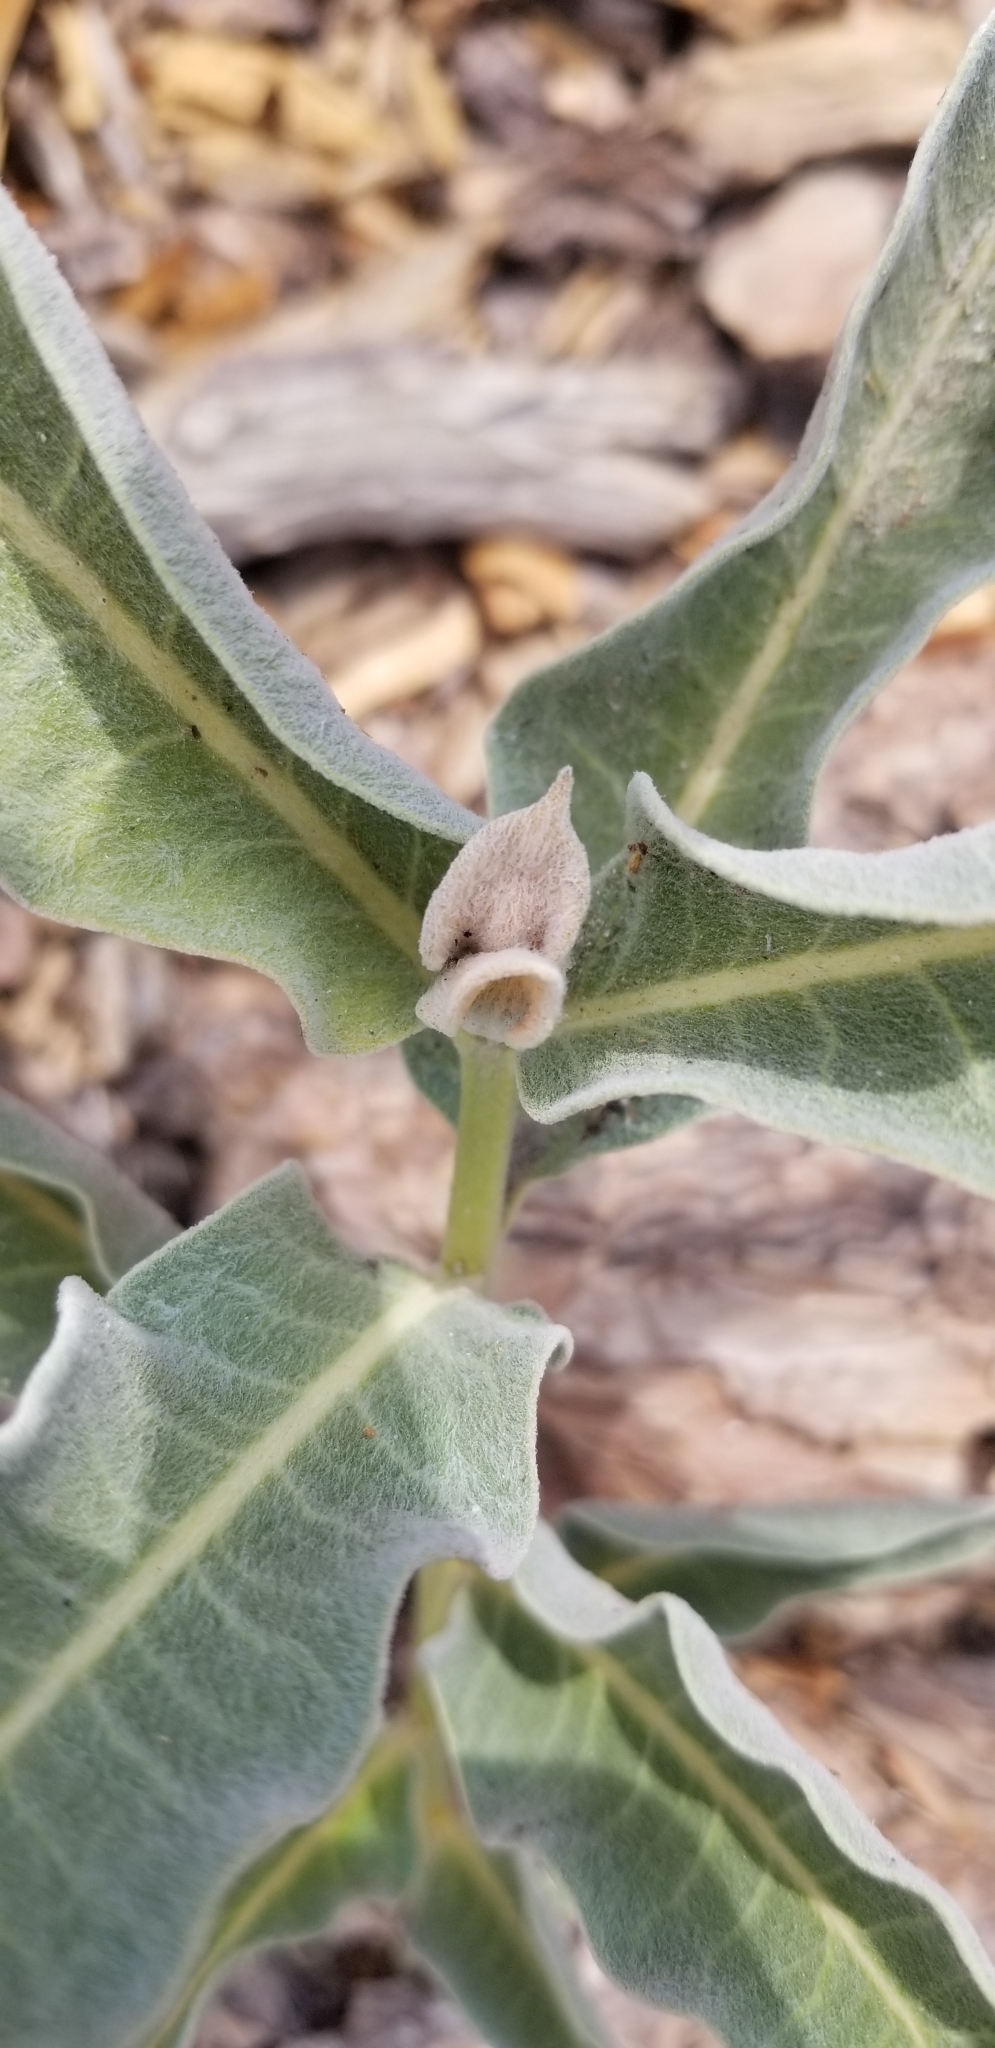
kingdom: Plantae
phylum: Tracheophyta
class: Magnoliopsida
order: Gentianales
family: Apocynaceae
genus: Asclepias
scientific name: Asclepias eriocarpa
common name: Indian milkweed
